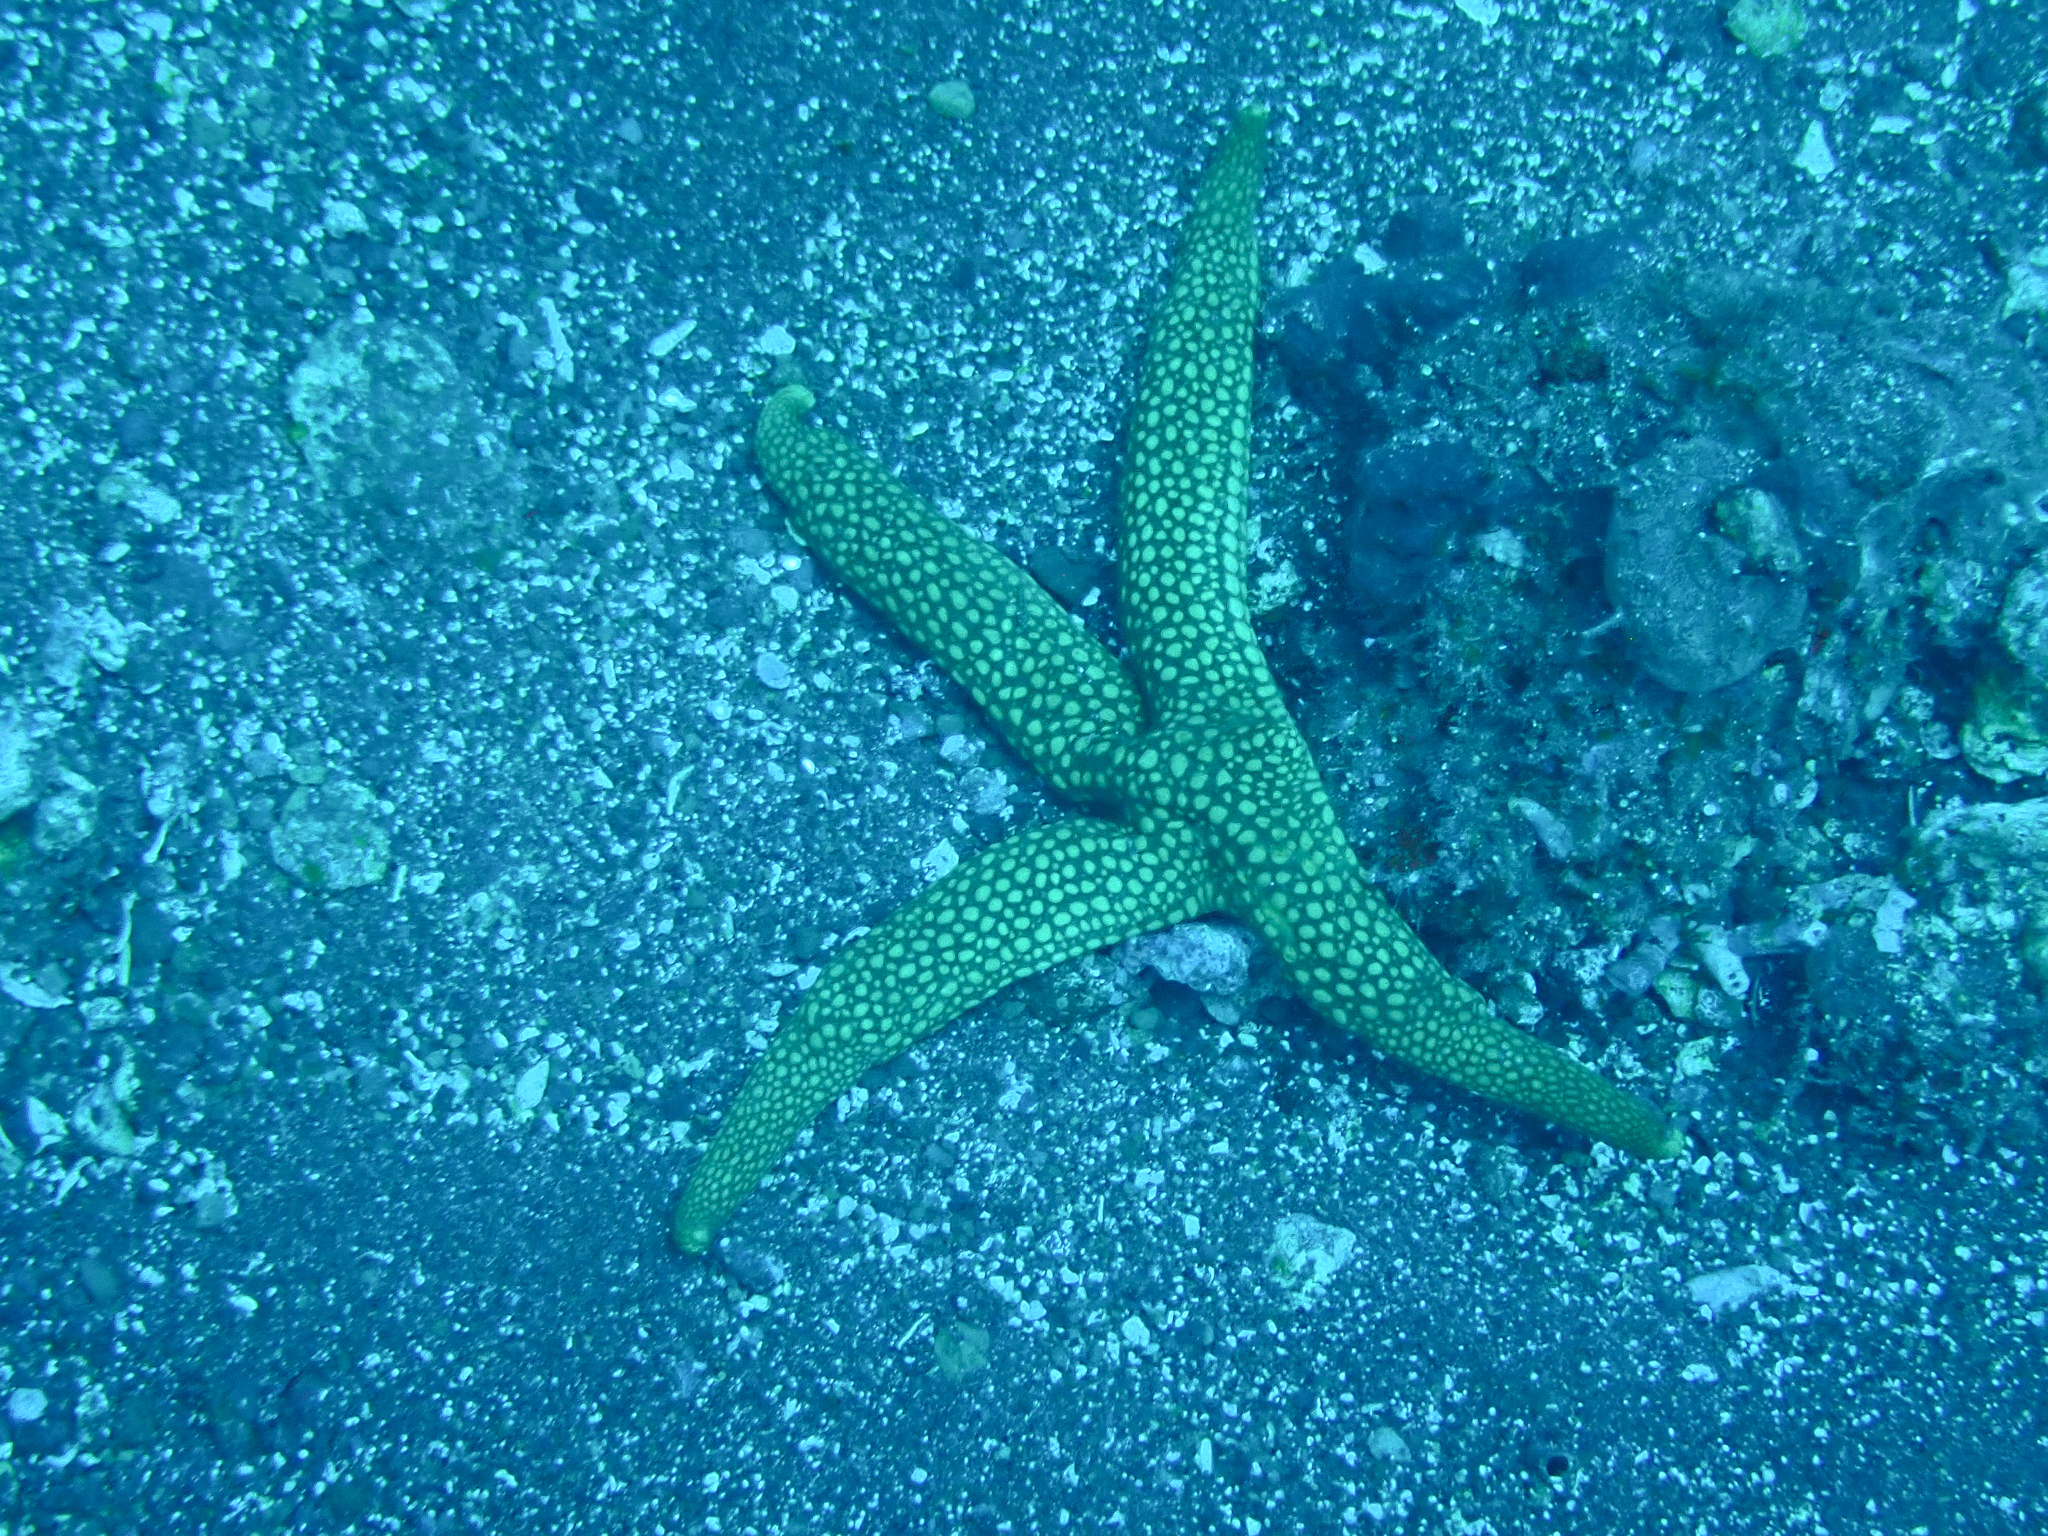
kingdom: Animalia
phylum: Echinodermata
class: Asteroidea
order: Valvatida
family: Ophidiasteridae
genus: Nardoa
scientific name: Nardoa novaecaledoniae
